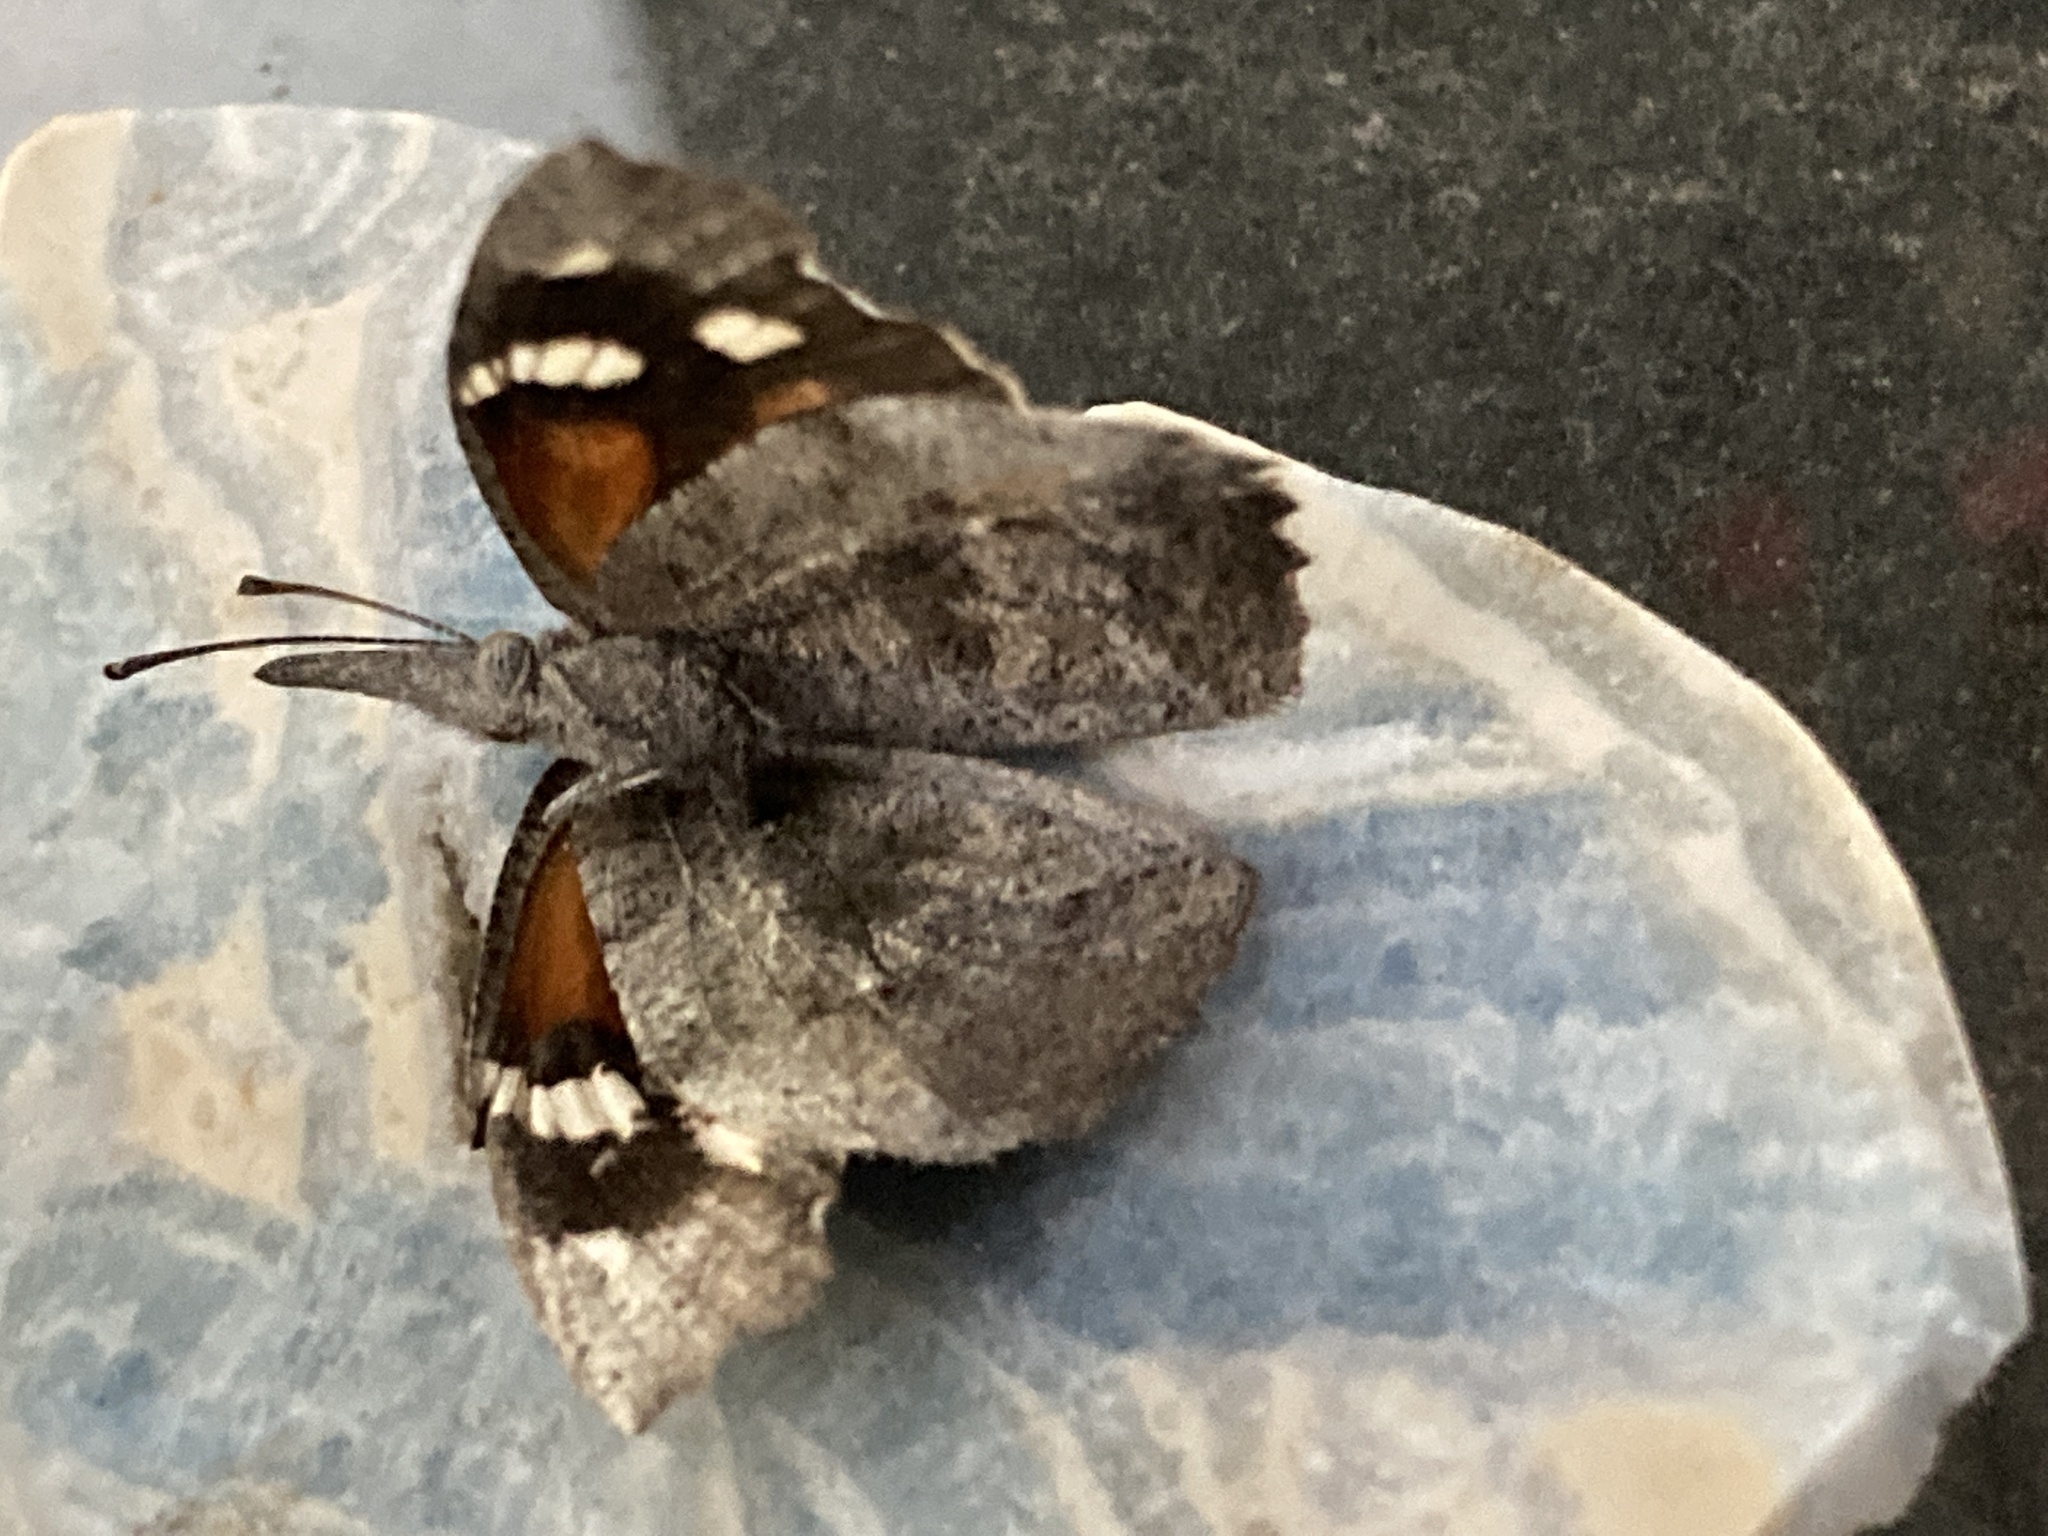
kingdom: Animalia
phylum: Arthropoda
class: Insecta
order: Lepidoptera
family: Nymphalidae
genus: Libytheana
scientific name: Libytheana carinenta
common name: American snout
